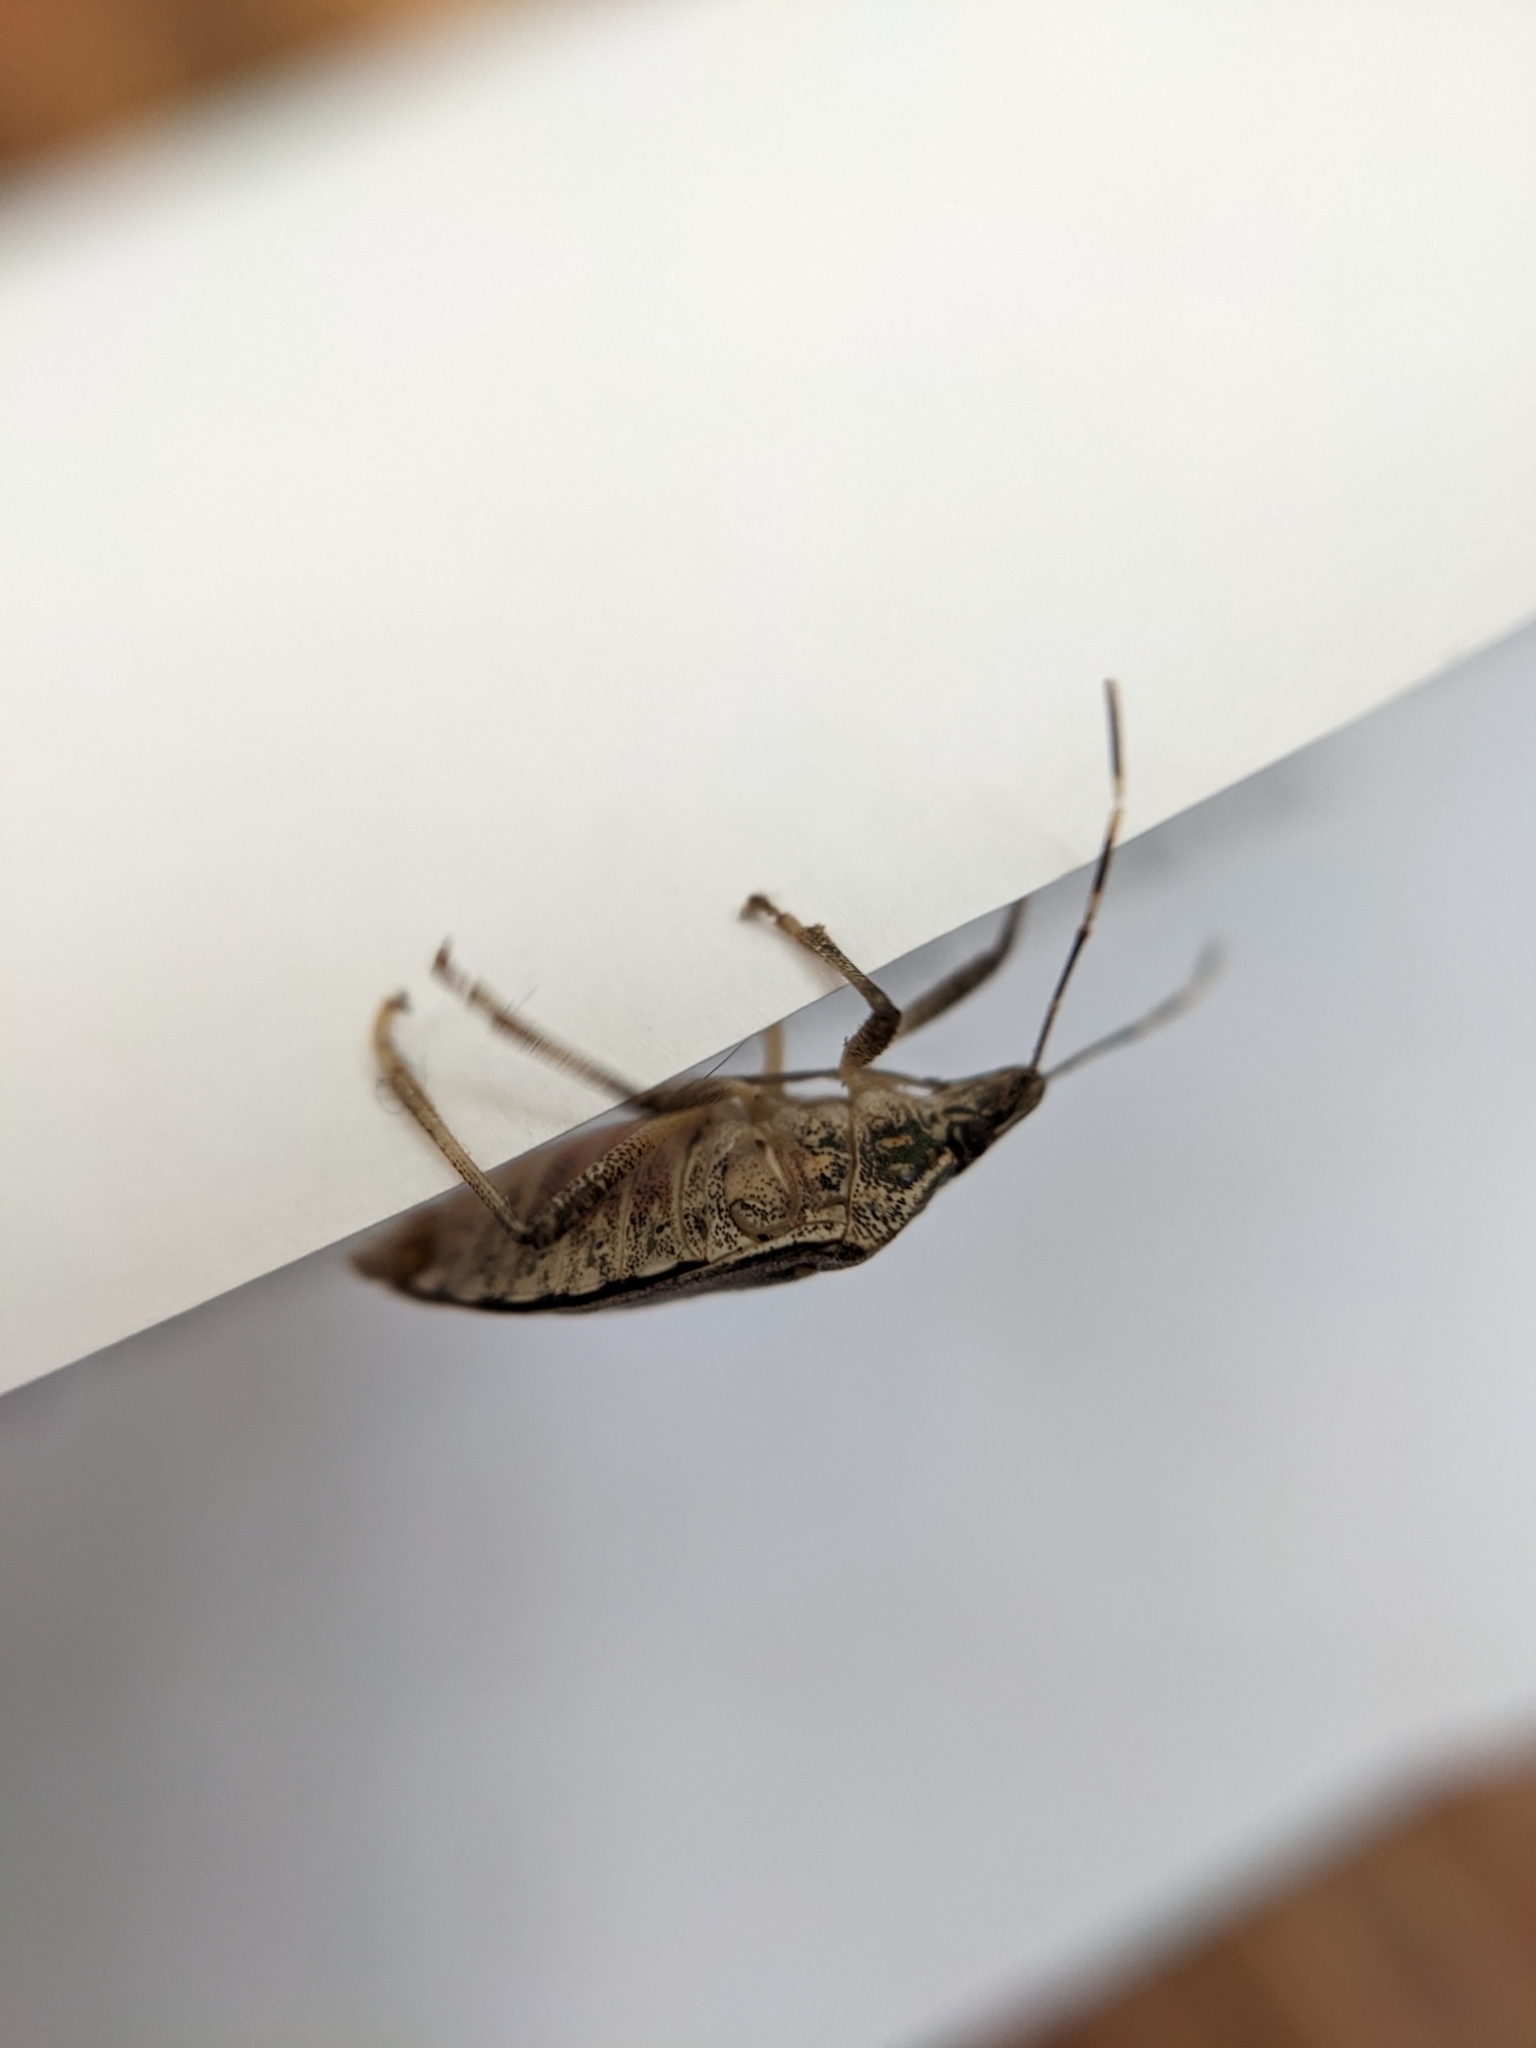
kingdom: Animalia
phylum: Arthropoda
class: Insecta
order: Hemiptera
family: Pentatomidae
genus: Halyomorpha
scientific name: Halyomorpha halys
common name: Brown marmorated stink bug
